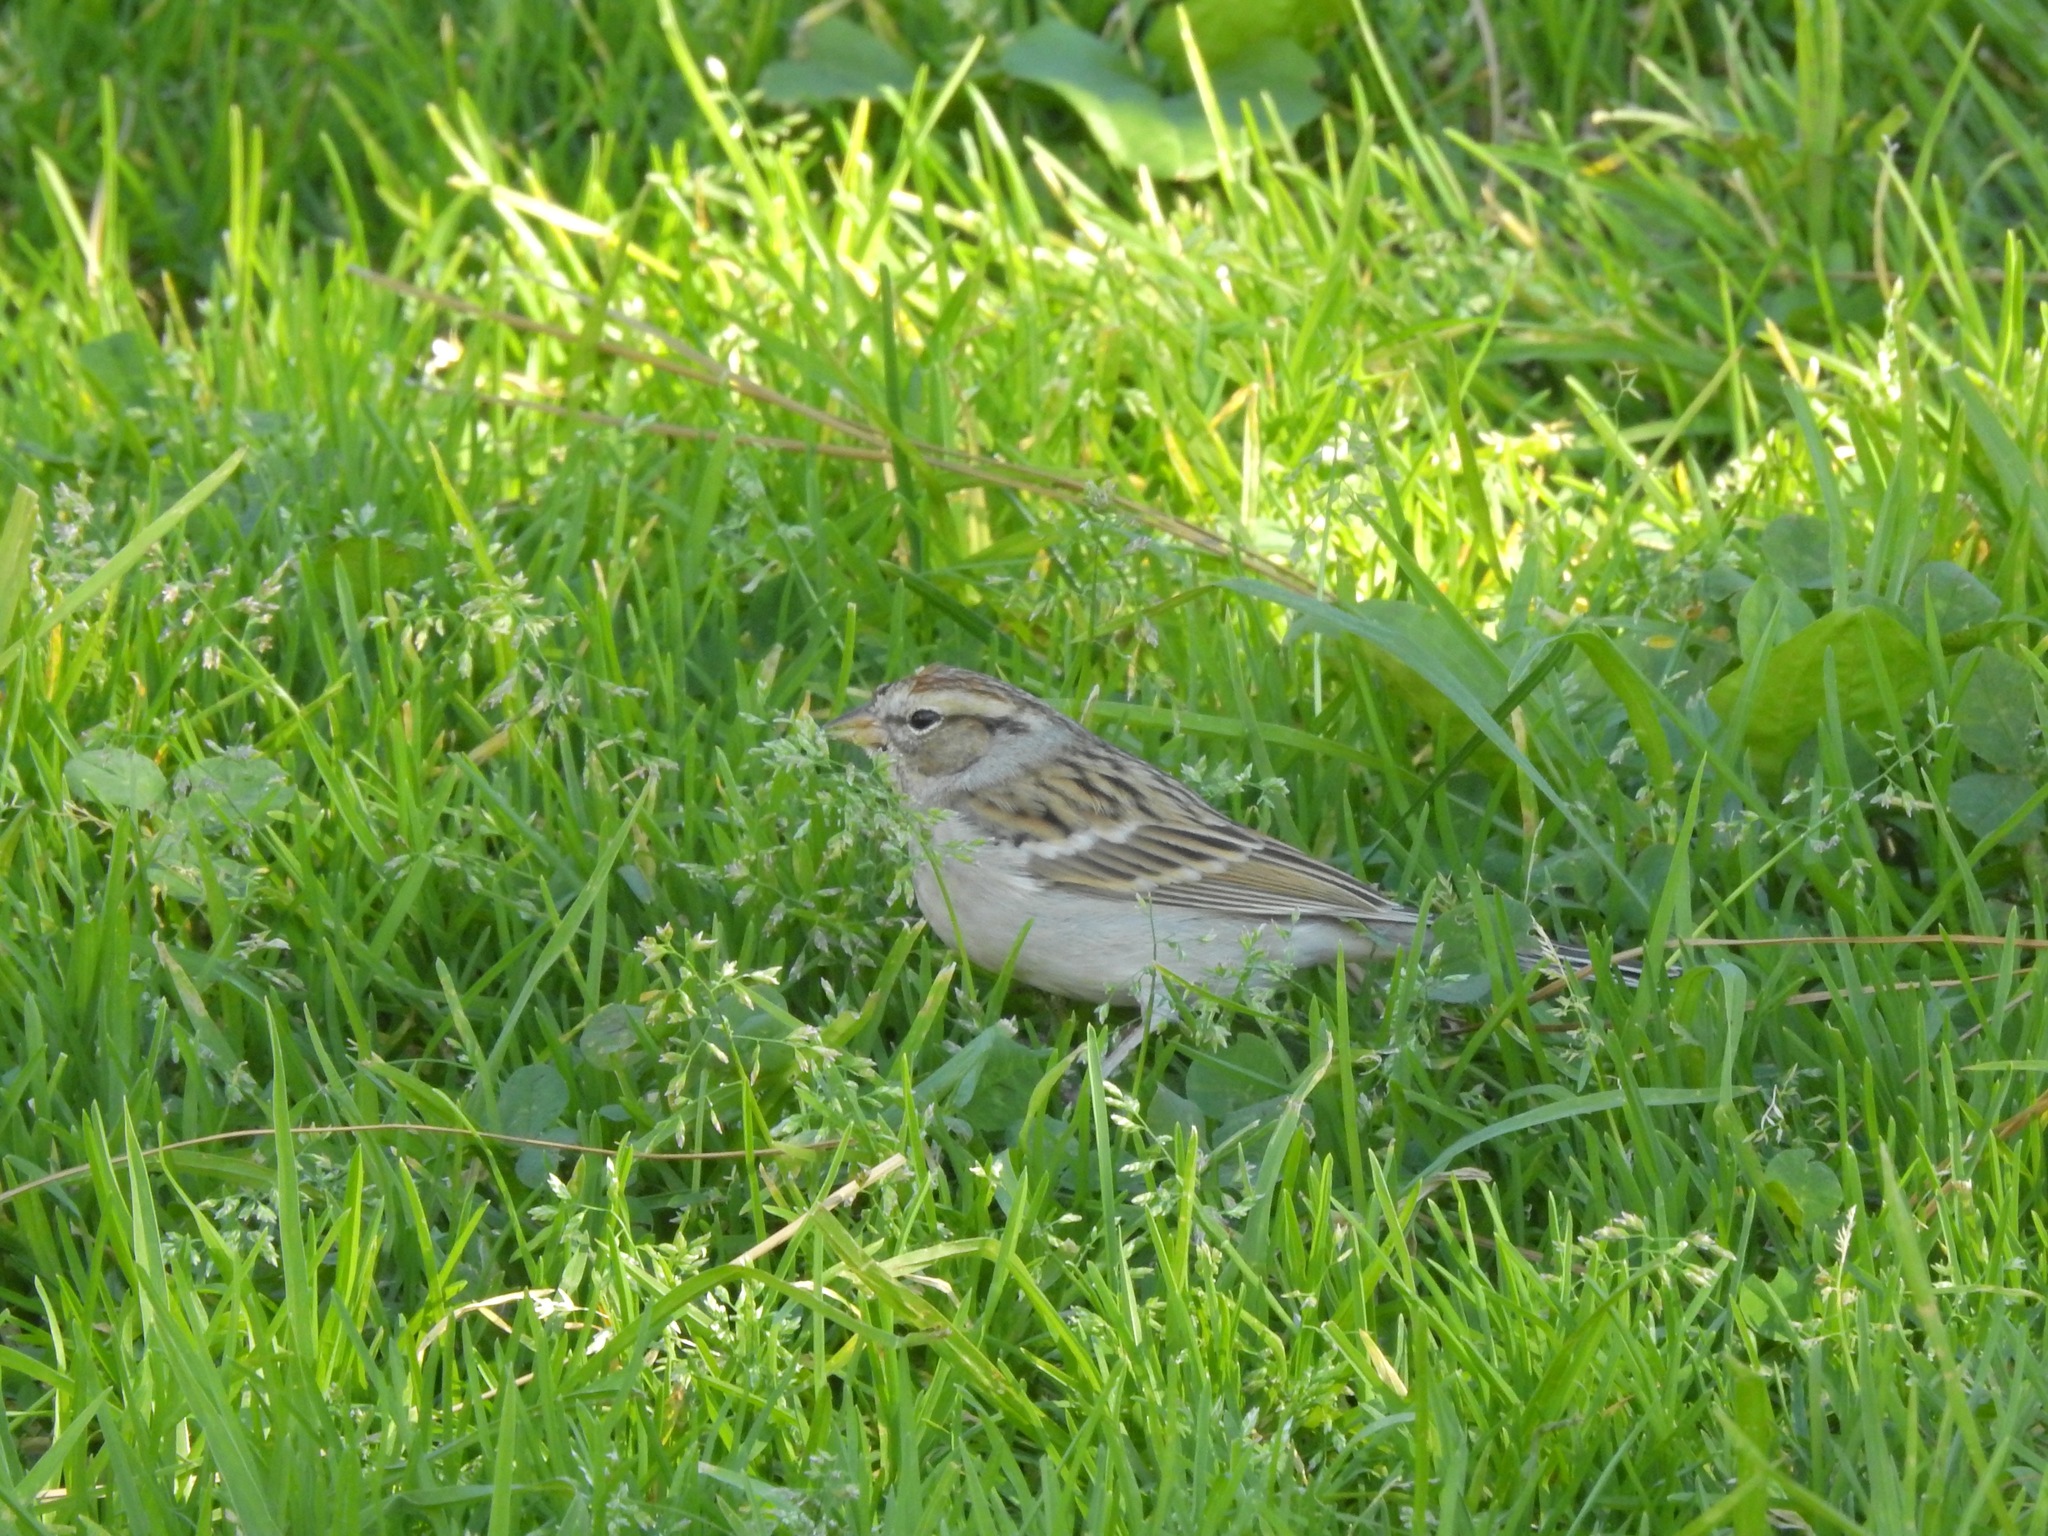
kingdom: Animalia
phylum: Chordata
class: Aves
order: Passeriformes
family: Passerellidae
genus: Spizella
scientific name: Spizella passerina
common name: Chipping sparrow
